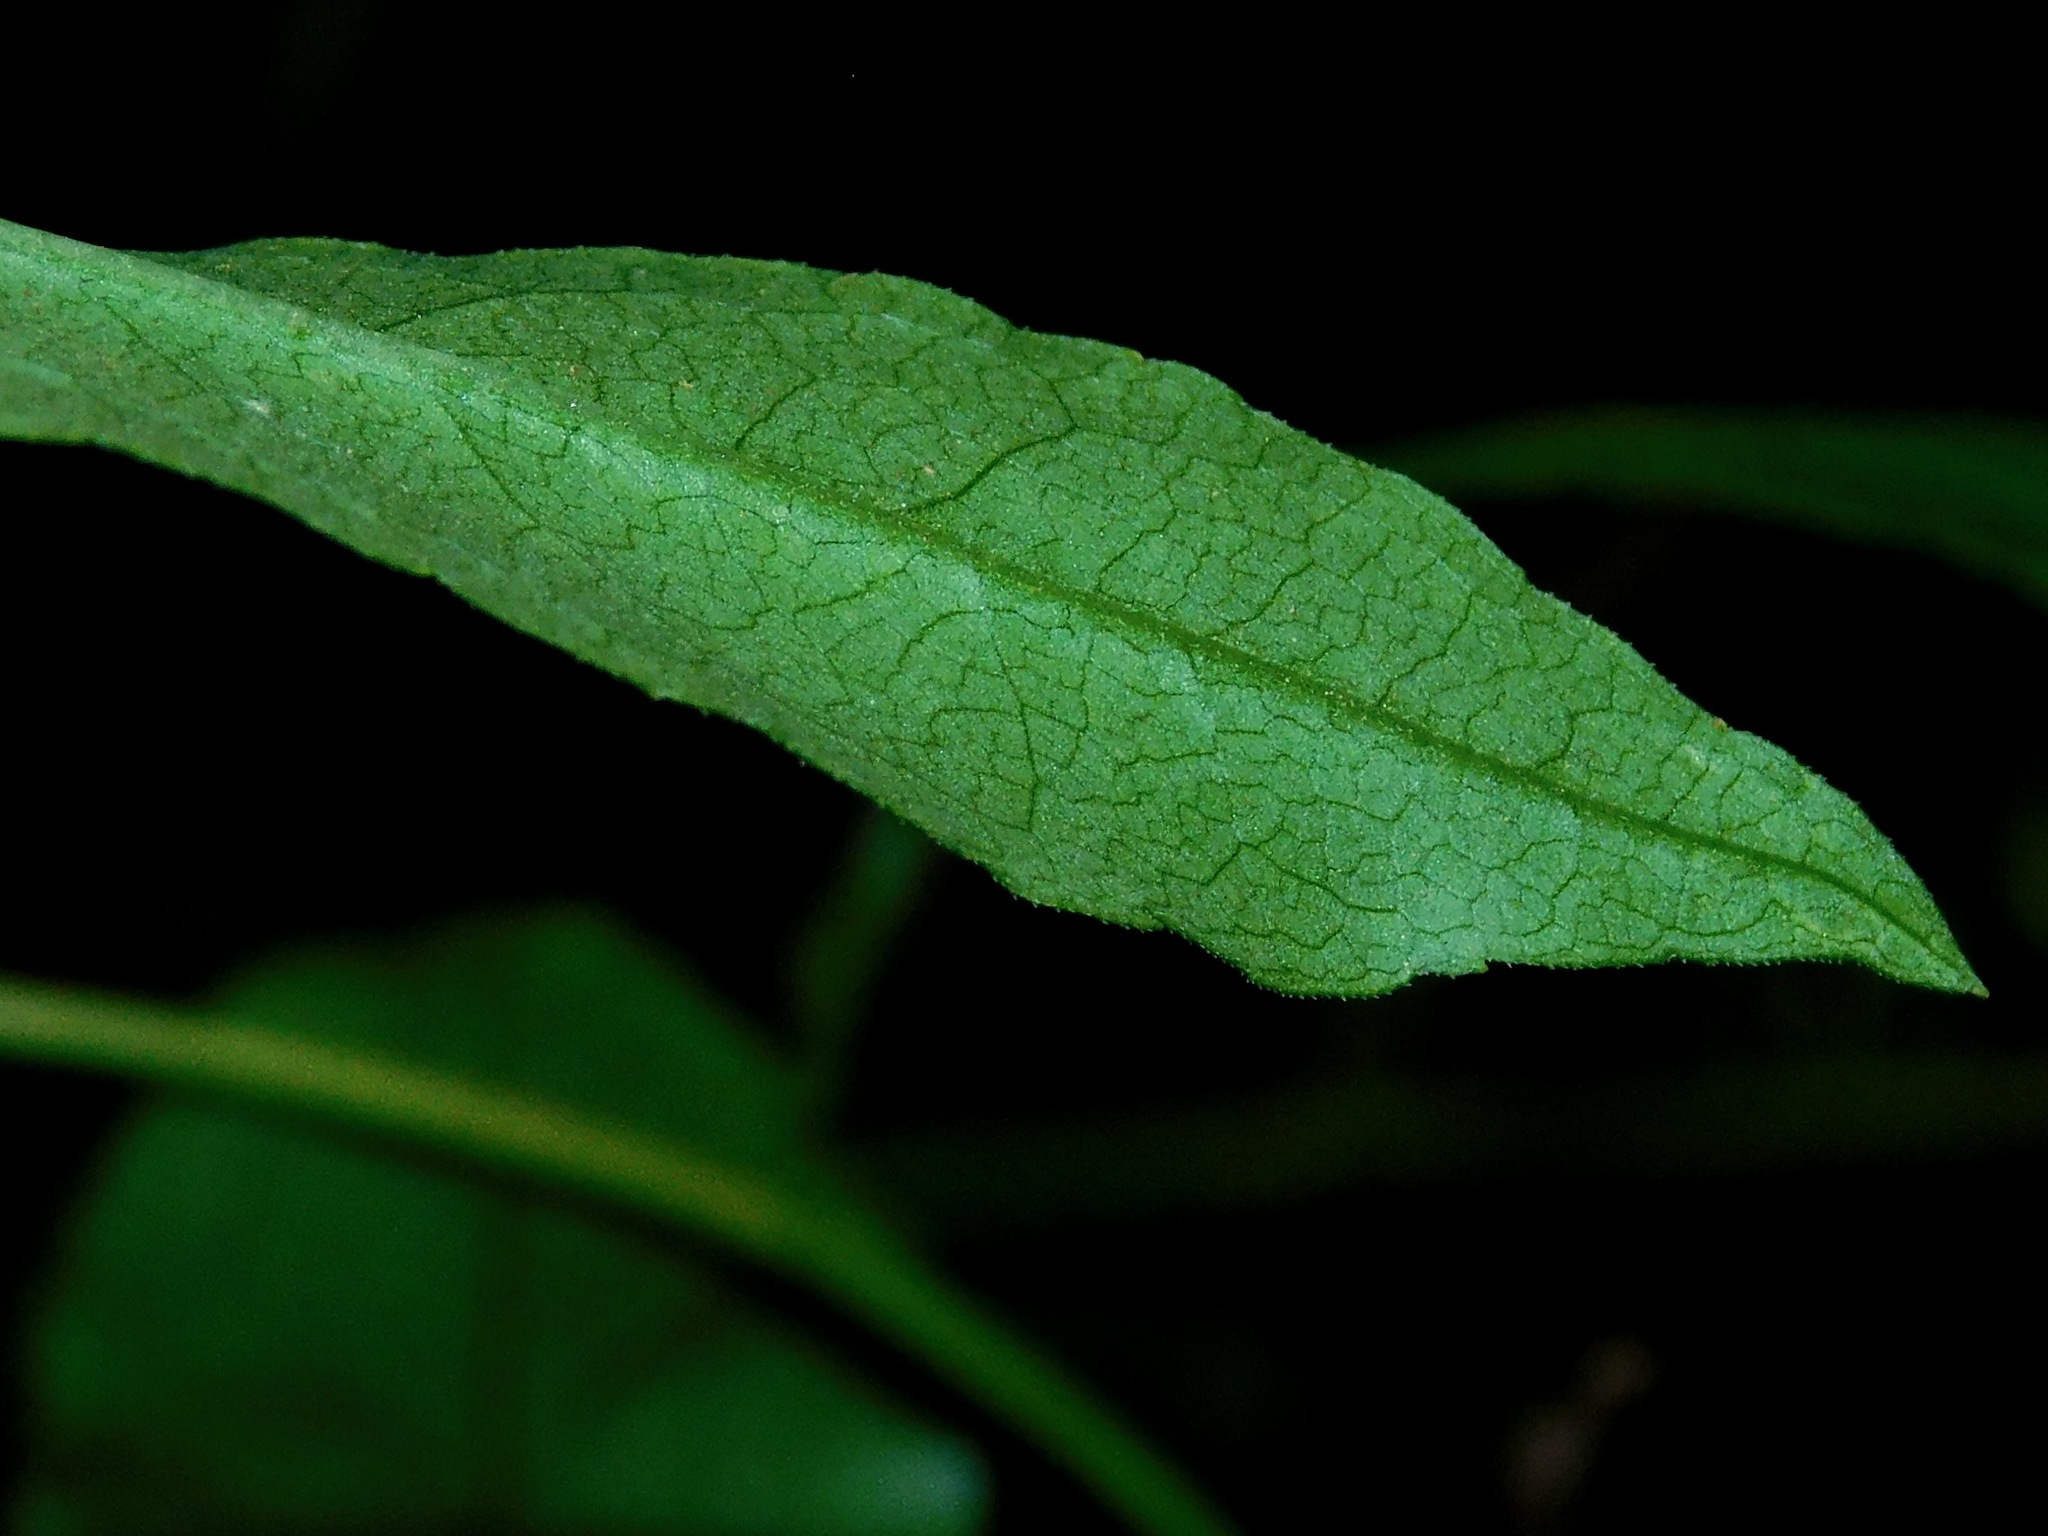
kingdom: Plantae
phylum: Tracheophyta
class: Magnoliopsida
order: Asterales
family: Asteraceae
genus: Solidago
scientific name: Solidago flexicaulis
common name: Zig-zag goldenrod
